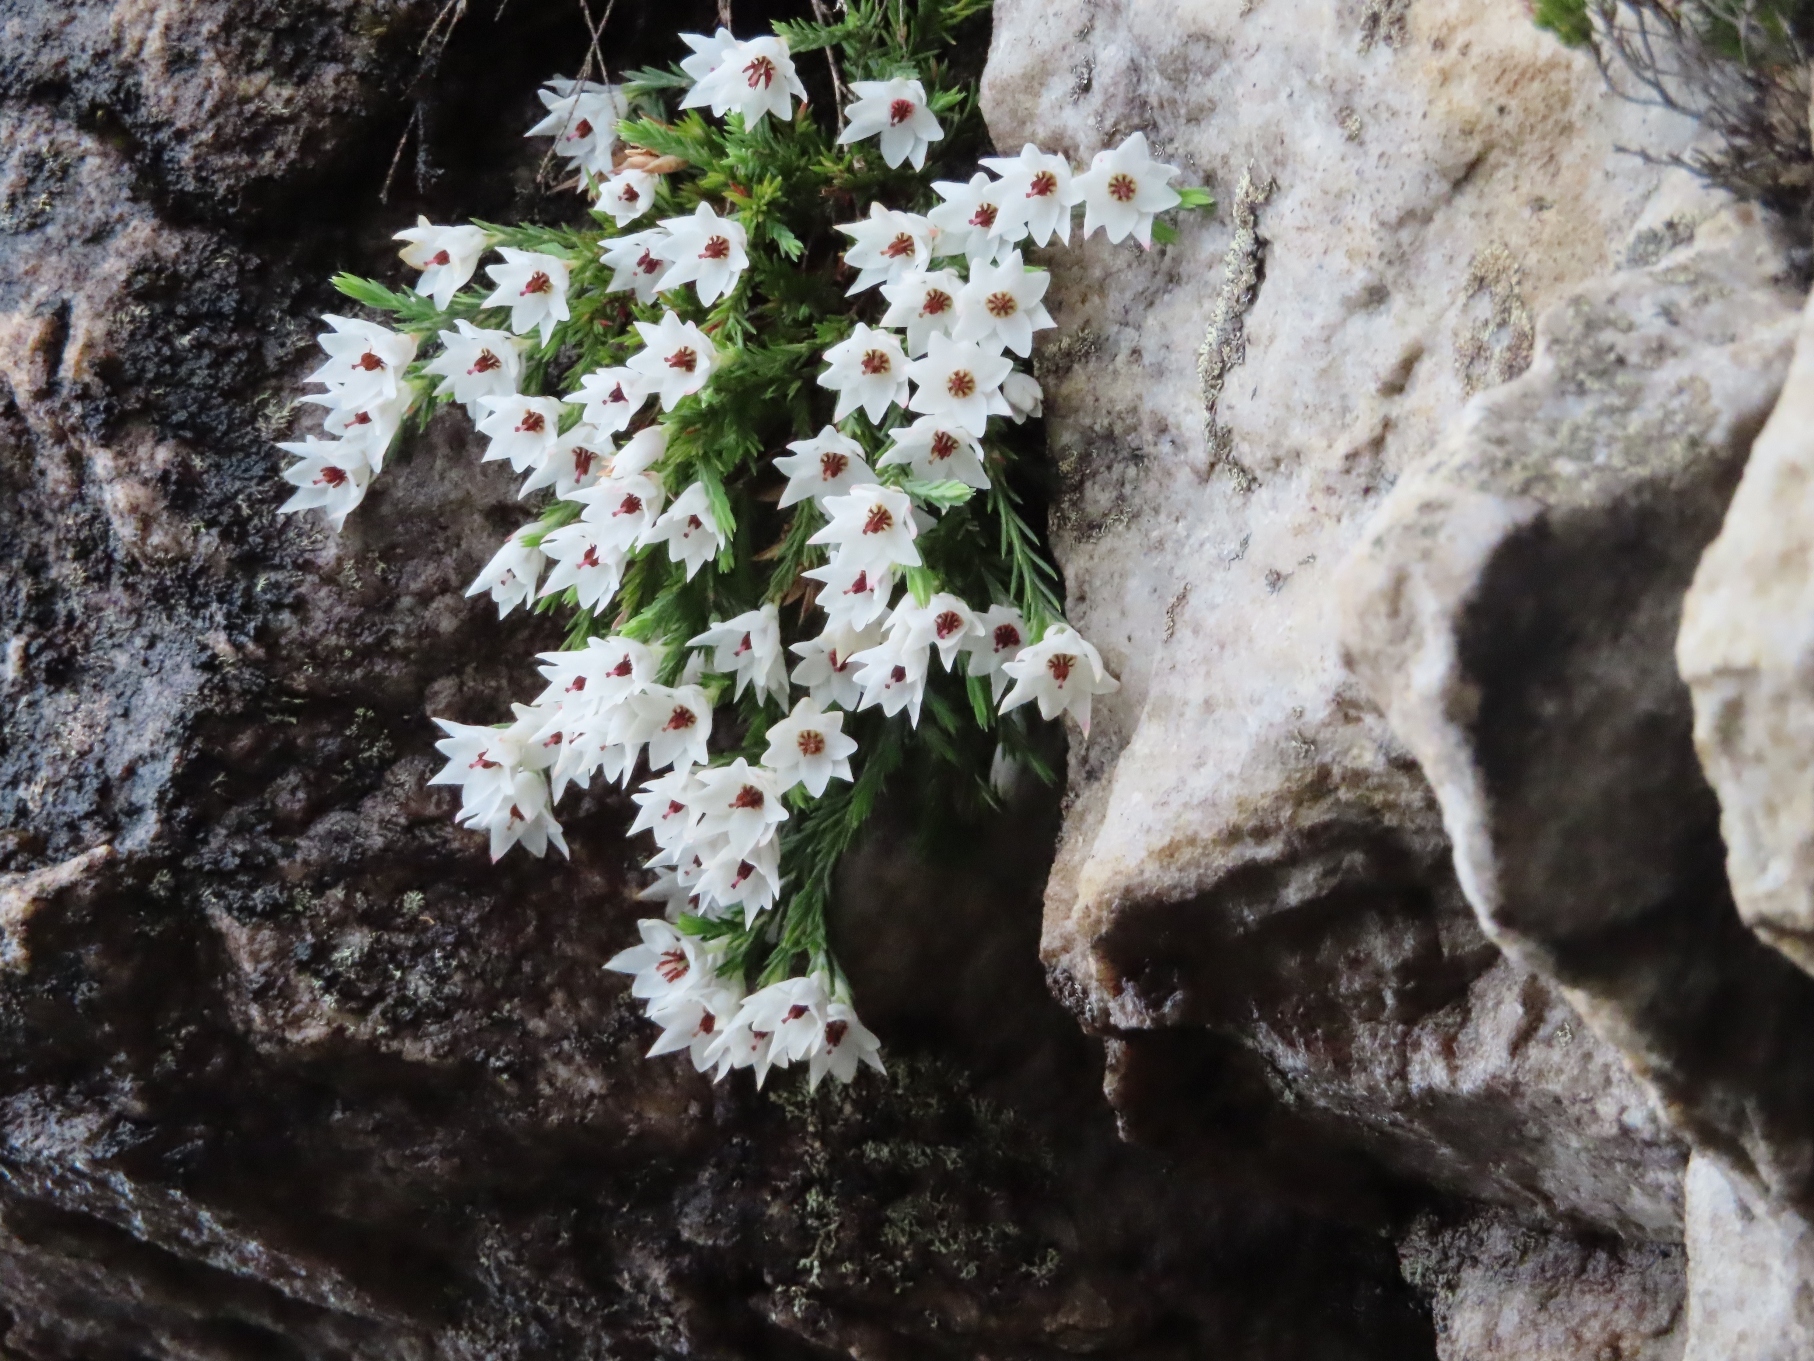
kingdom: Plantae
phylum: Tracheophyta
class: Magnoliopsida
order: Ericales
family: Ericaceae
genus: Erica
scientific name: Erica galgebergensis
